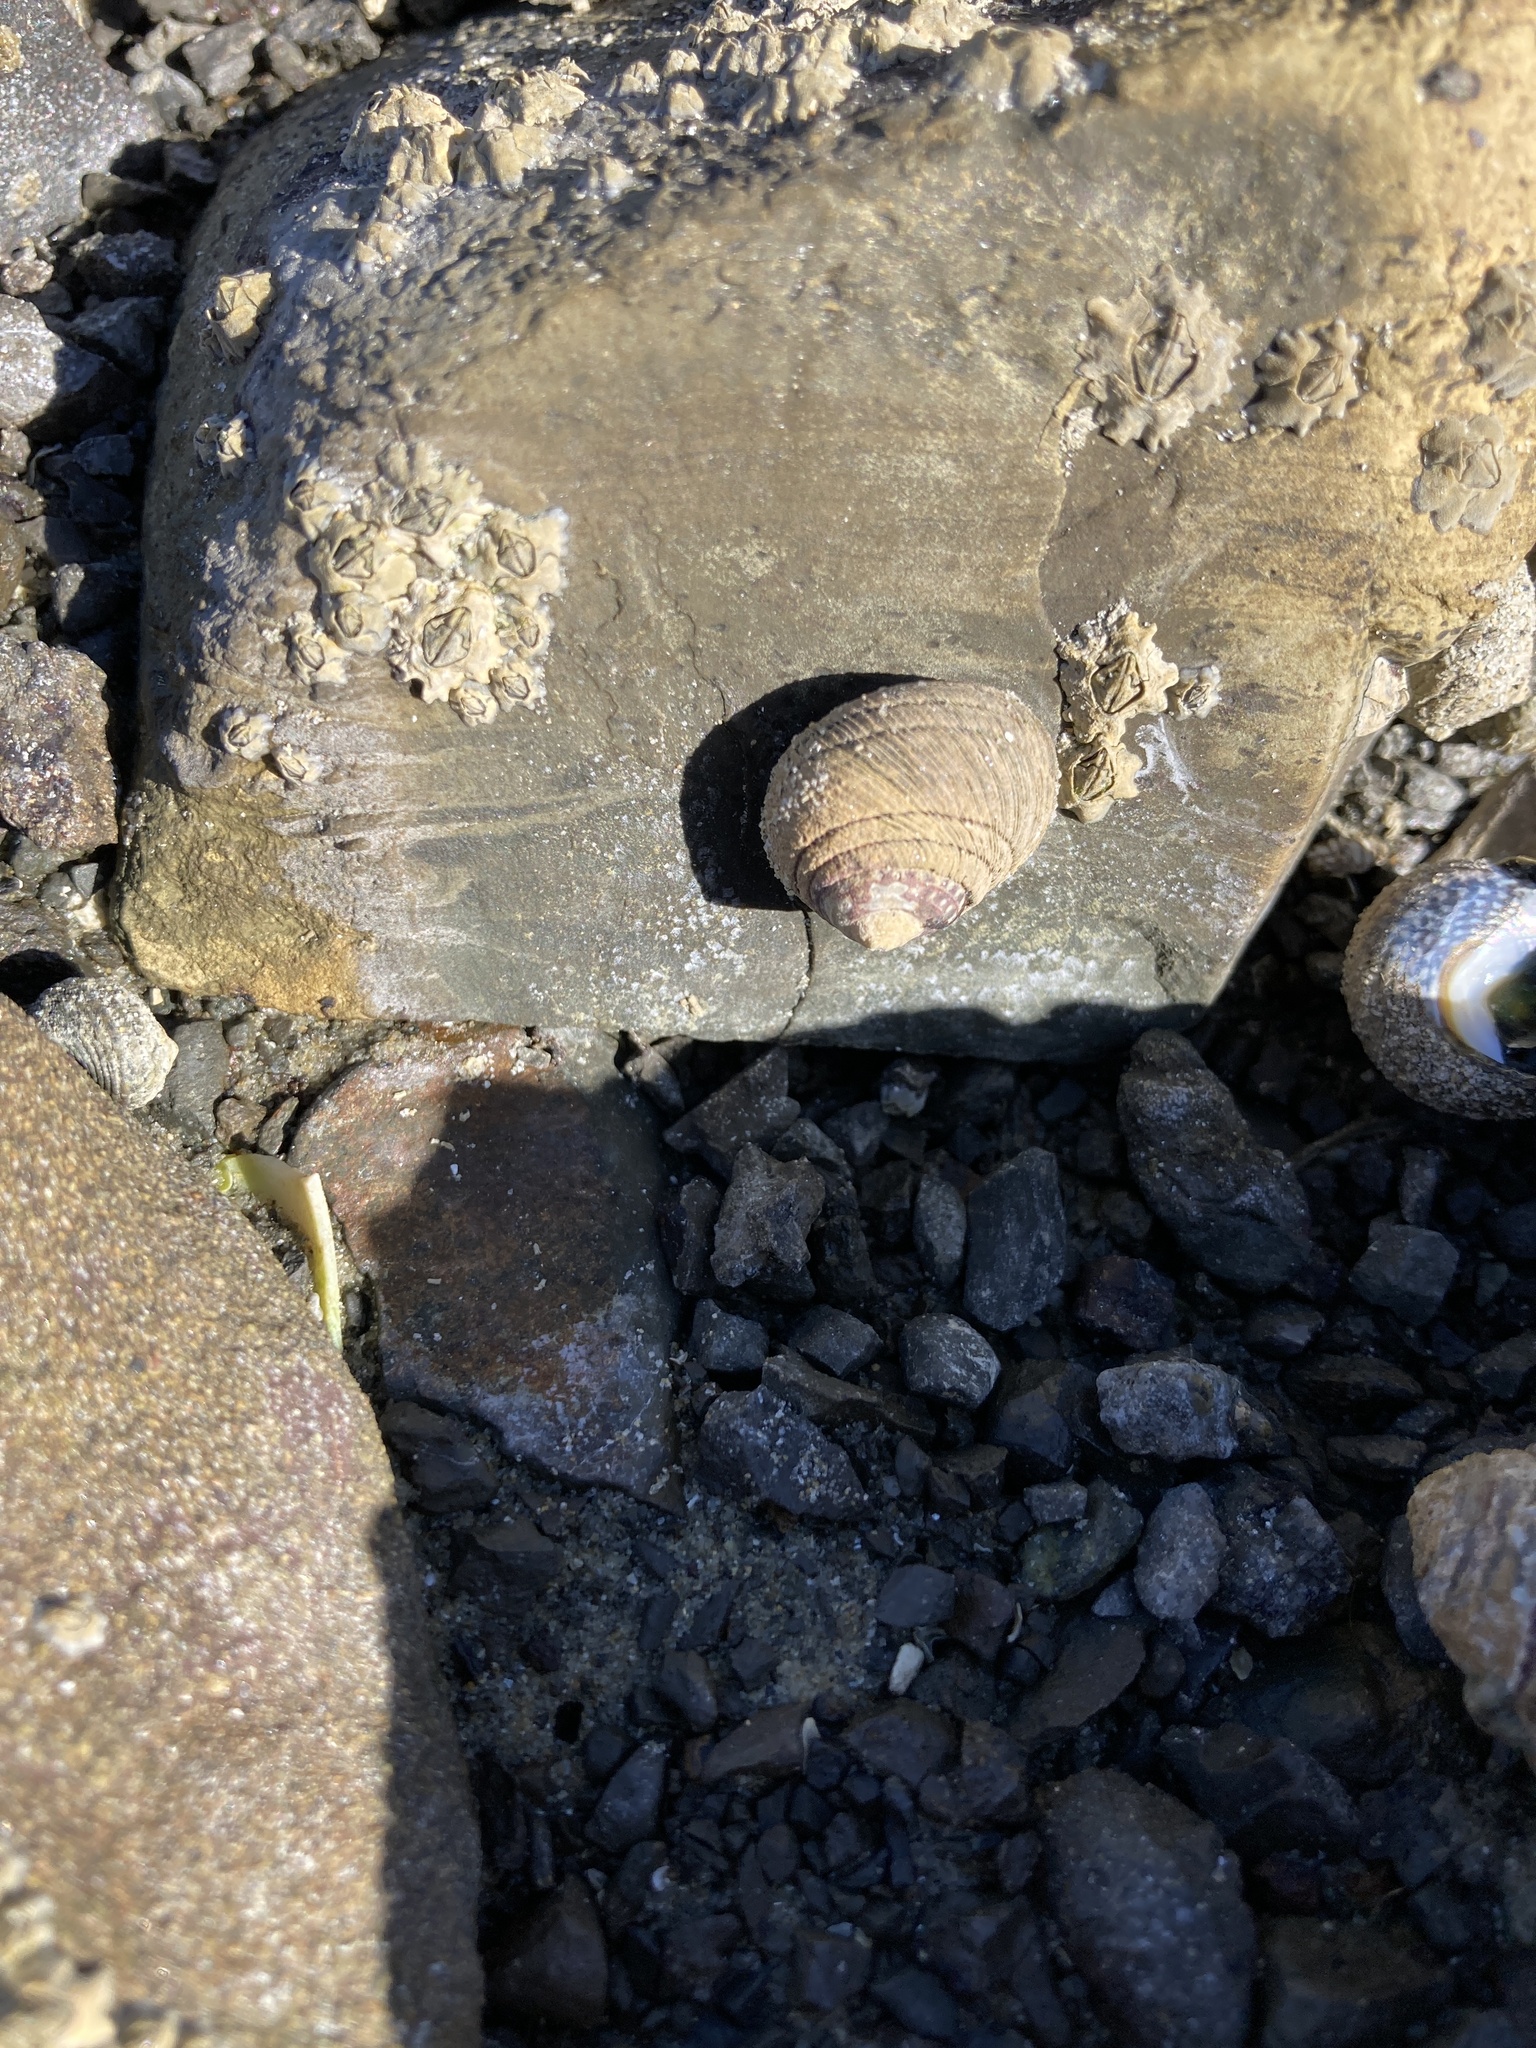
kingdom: Animalia
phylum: Mollusca
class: Gastropoda
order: Trochida
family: Trochidae
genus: Diloma
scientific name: Diloma aethiops
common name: Scorched monodont
